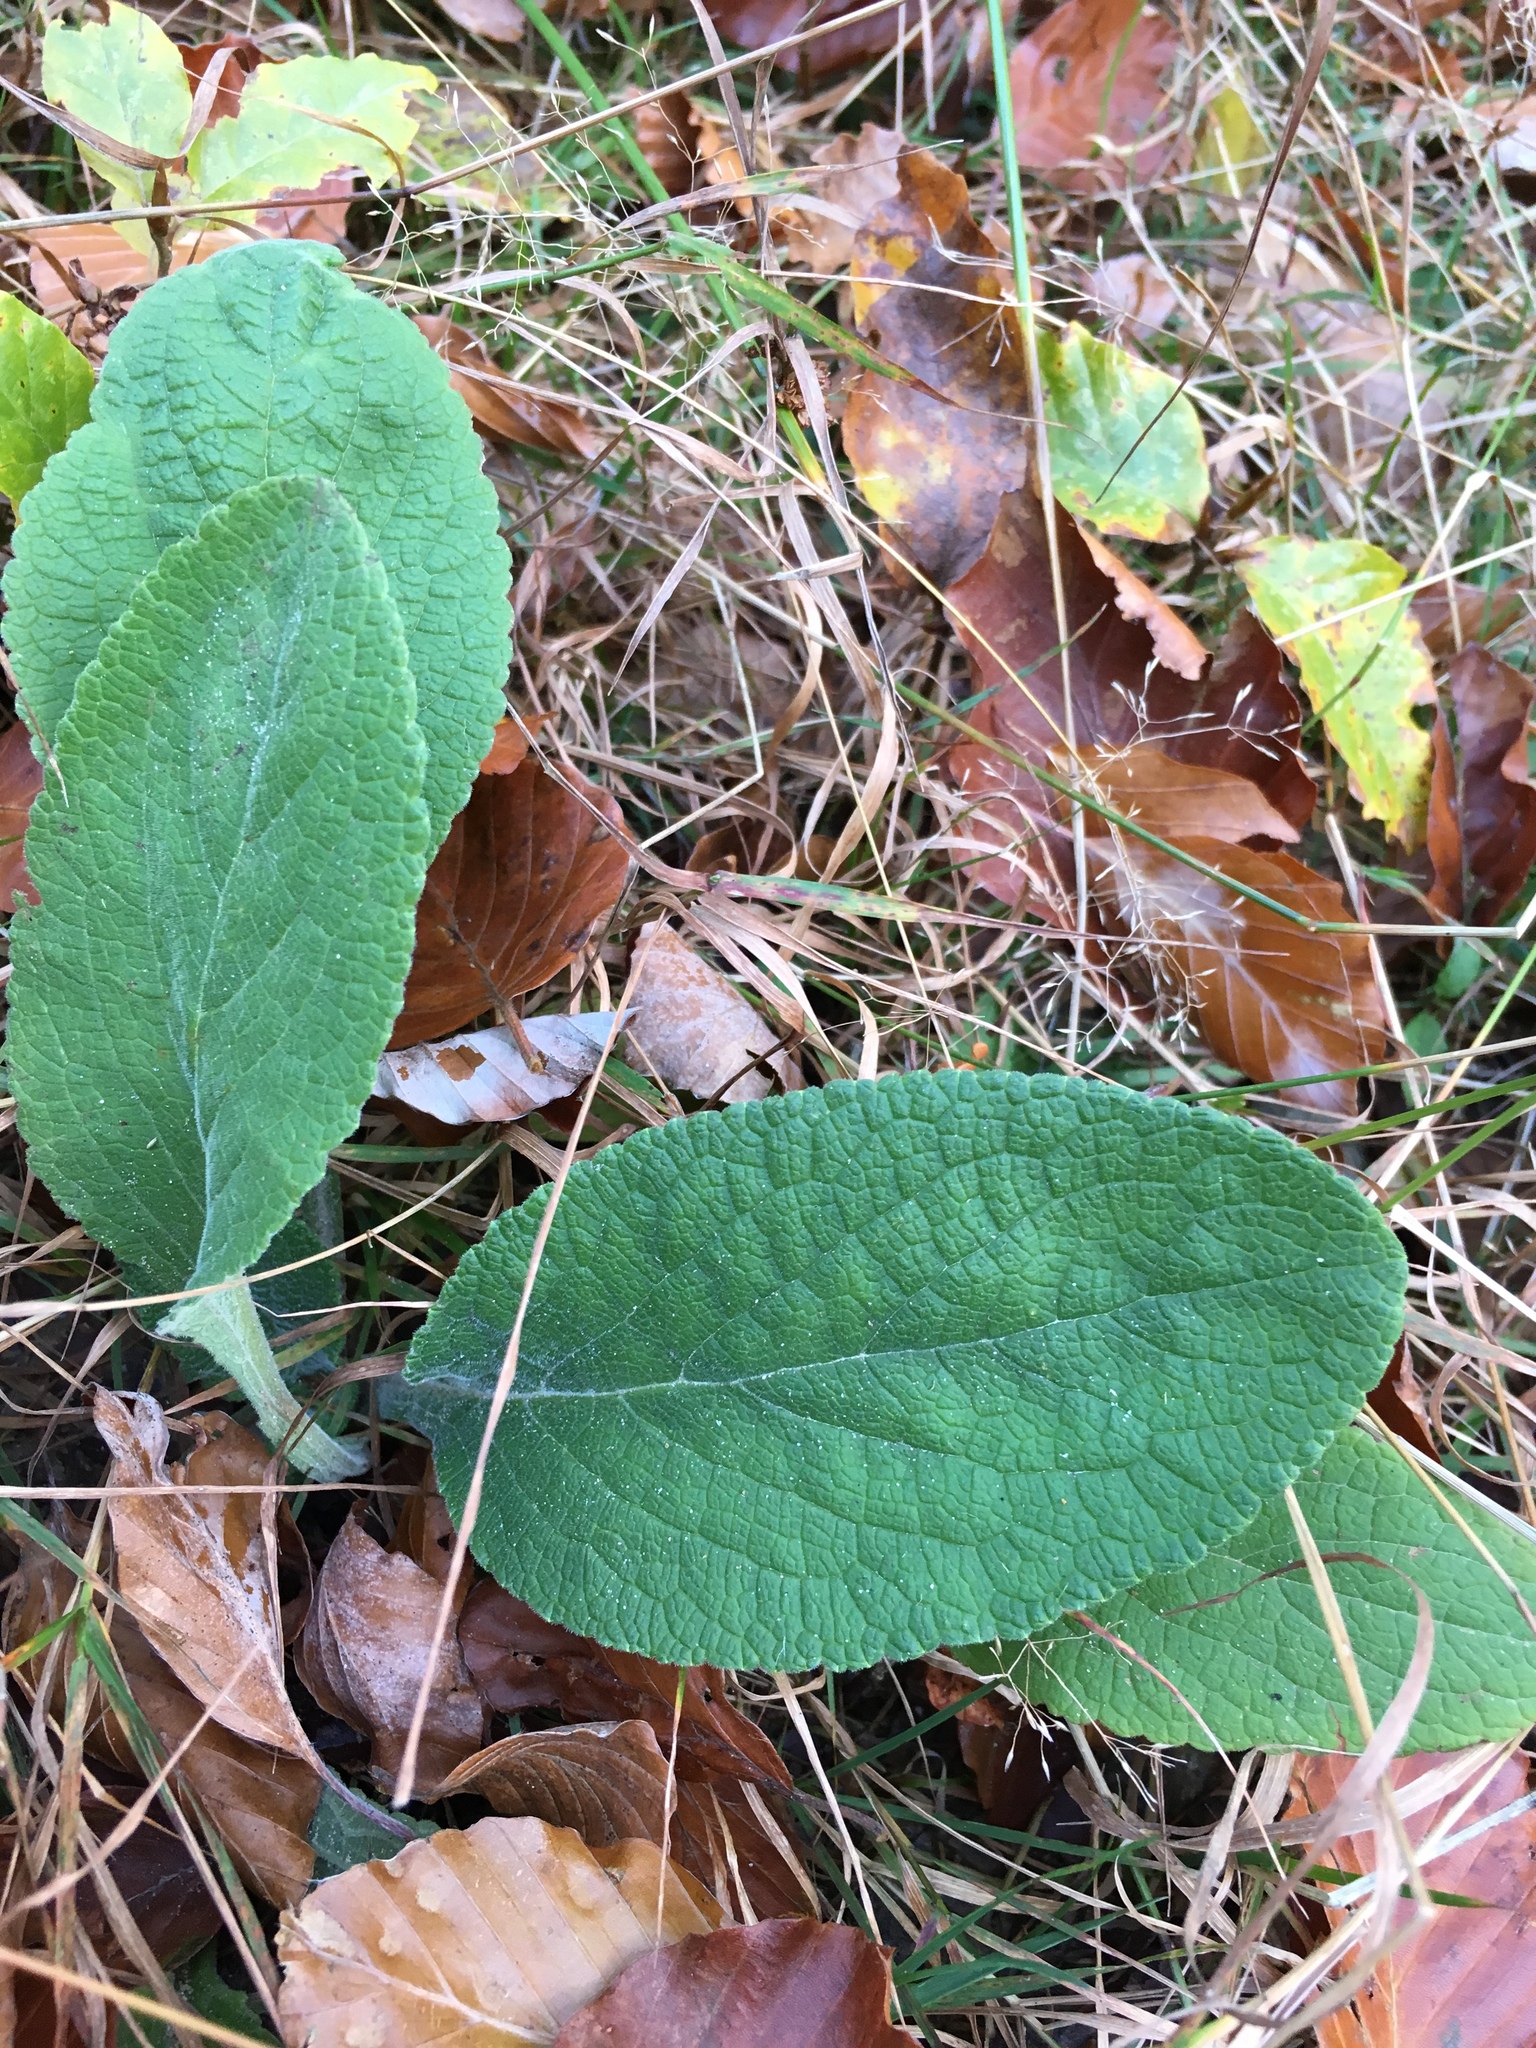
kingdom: Plantae
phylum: Tracheophyta
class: Magnoliopsida
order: Lamiales
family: Plantaginaceae
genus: Digitalis
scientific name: Digitalis purpurea
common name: Foxglove
